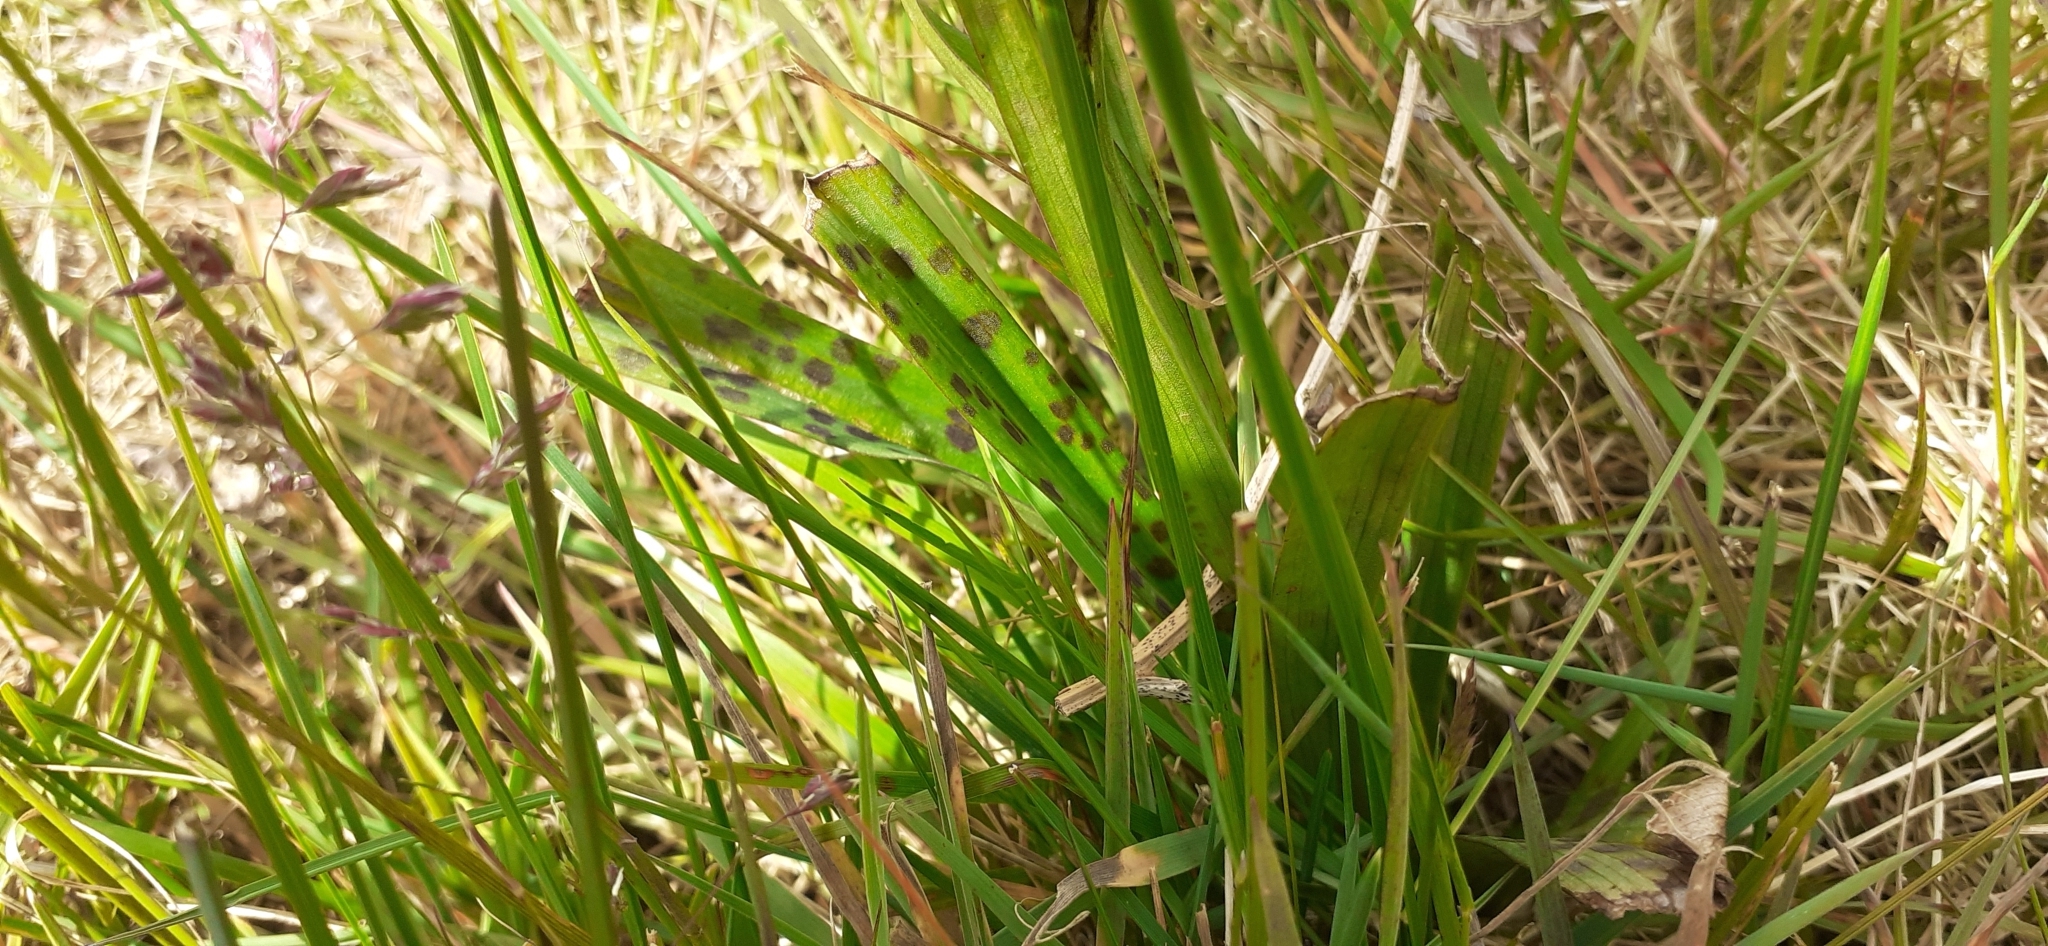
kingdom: Plantae
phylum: Tracheophyta
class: Liliopsida
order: Asparagales
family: Orchidaceae
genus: Dactylorhiza
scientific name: Dactylorhiza maculata
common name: Heath spotted-orchid
